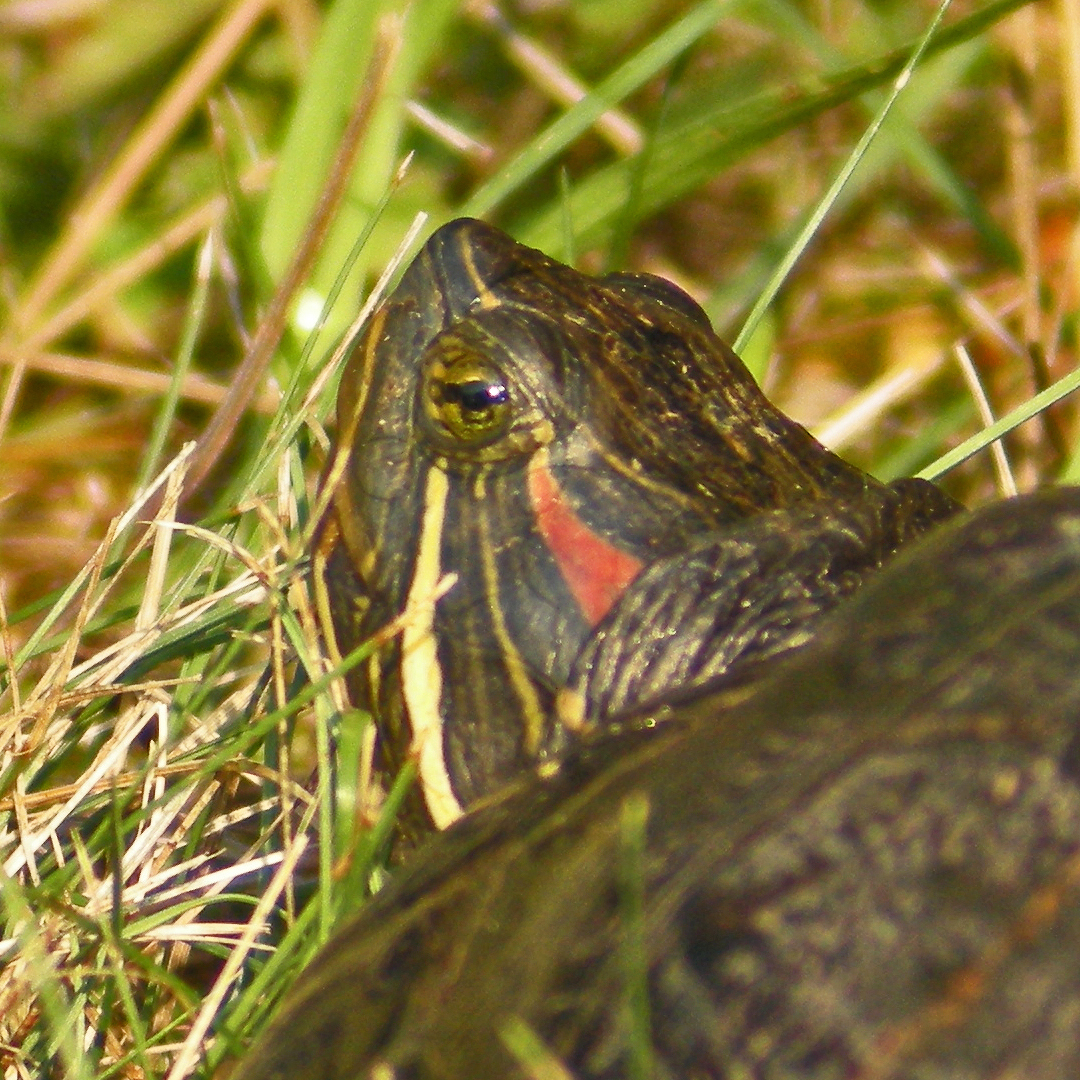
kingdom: Animalia
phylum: Chordata
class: Testudines
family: Emydidae
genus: Trachemys
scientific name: Trachemys scripta
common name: Slider
